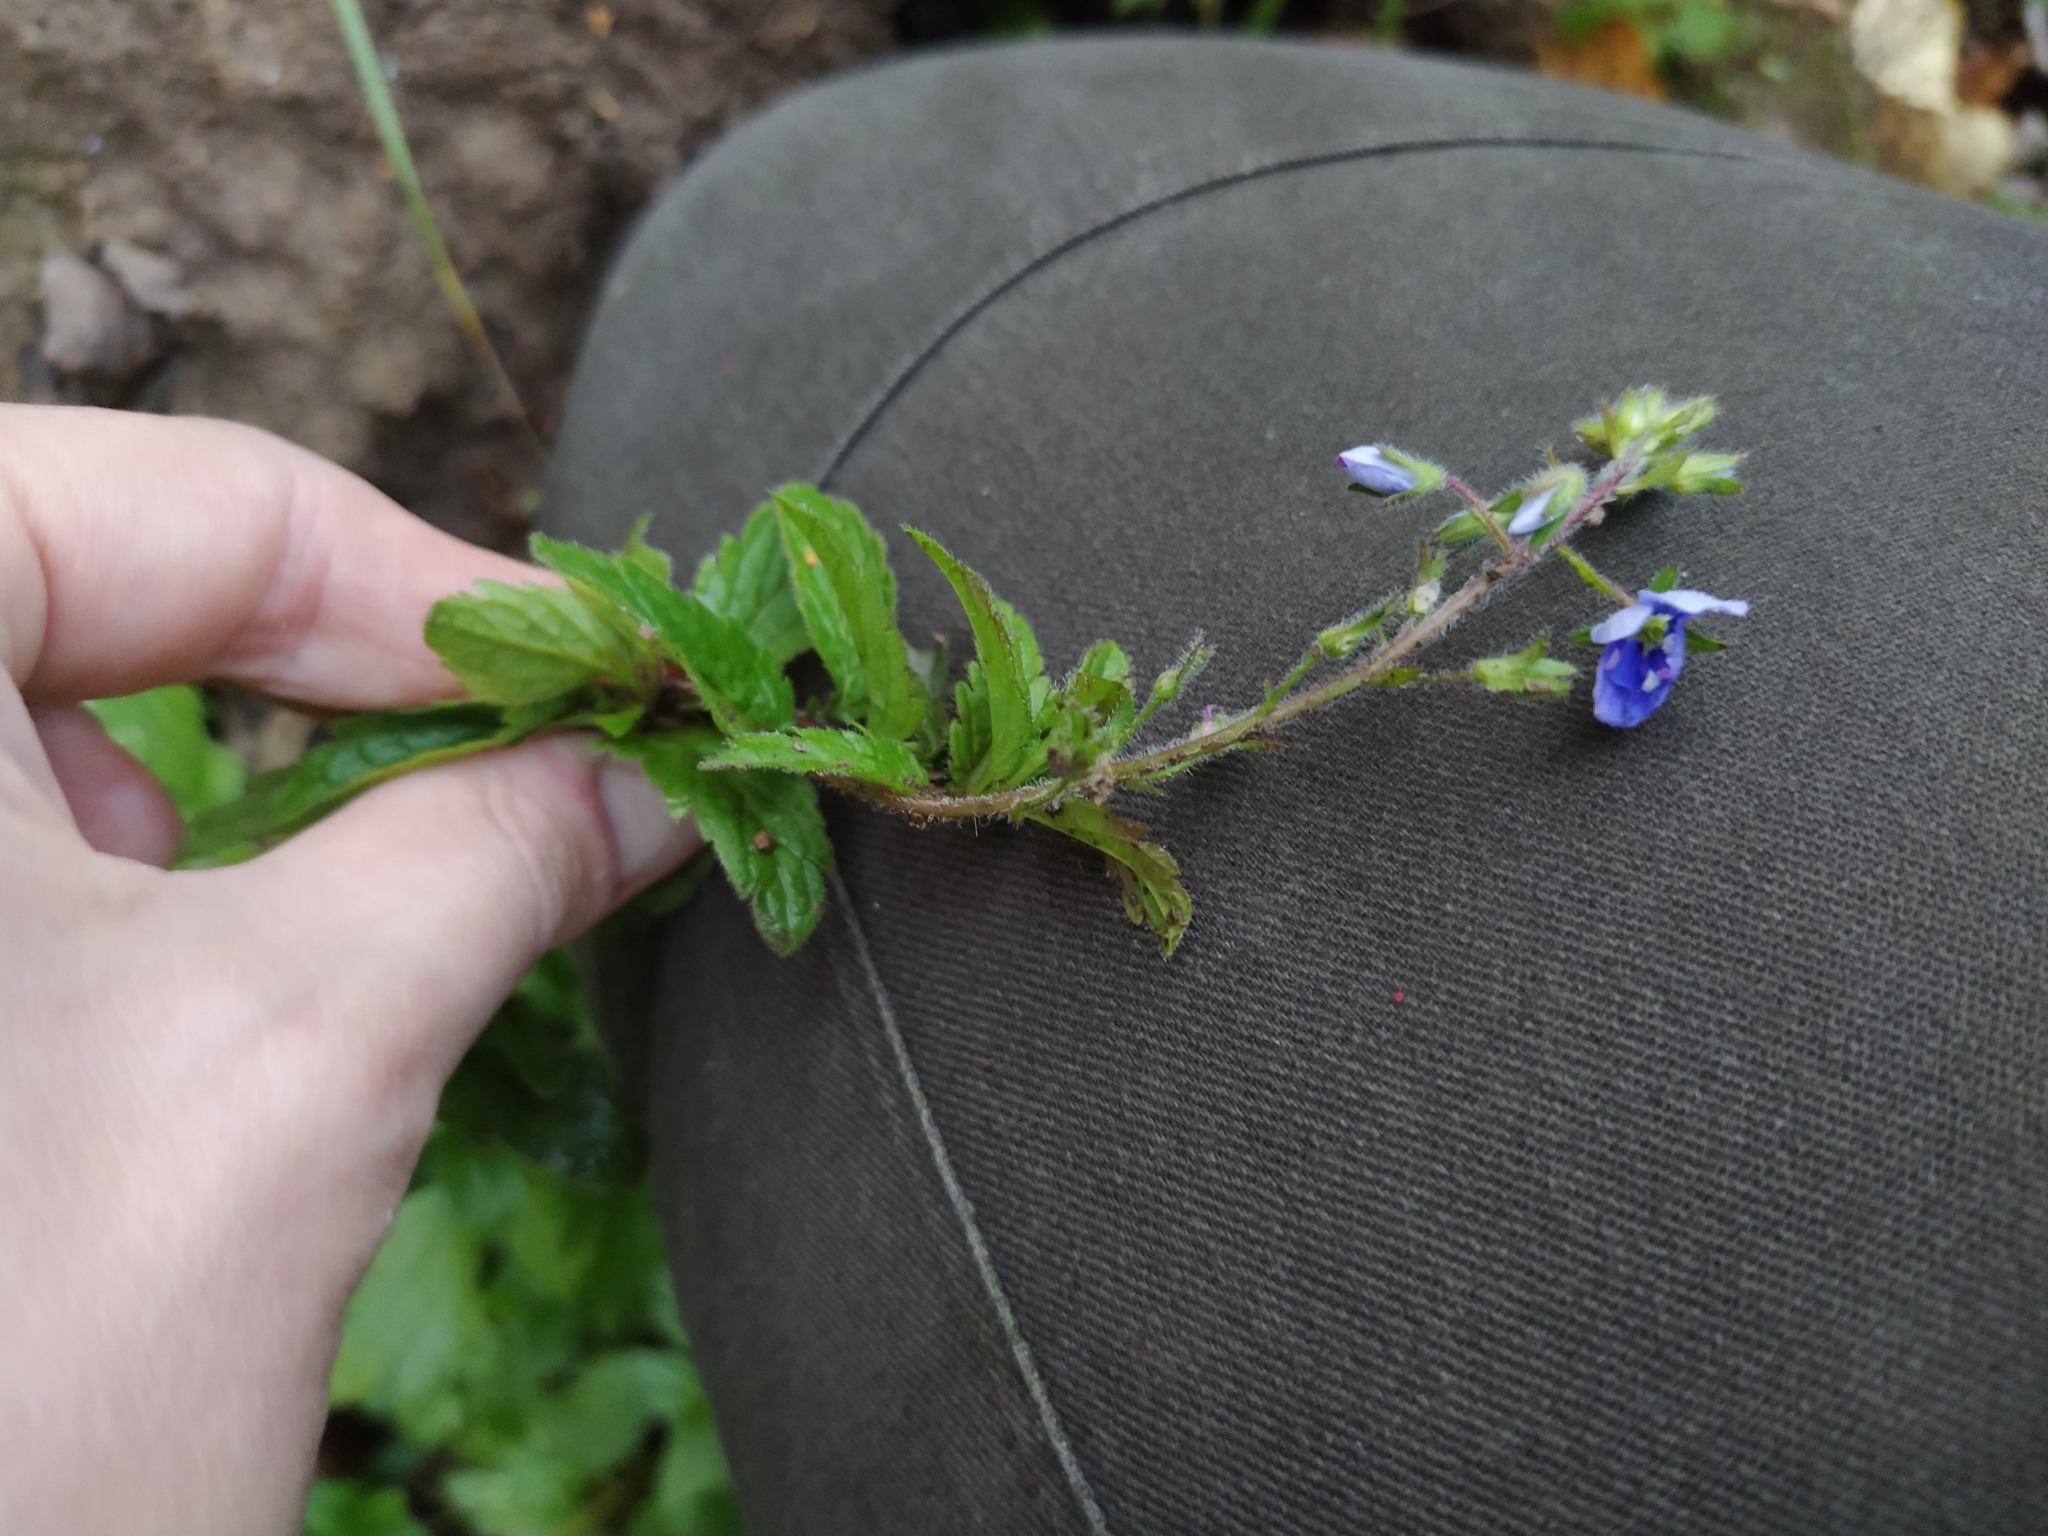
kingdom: Plantae
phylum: Tracheophyta
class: Magnoliopsida
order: Lamiales
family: Plantaginaceae
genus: Veronica
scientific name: Veronica chamaedrys
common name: Germander speedwell
